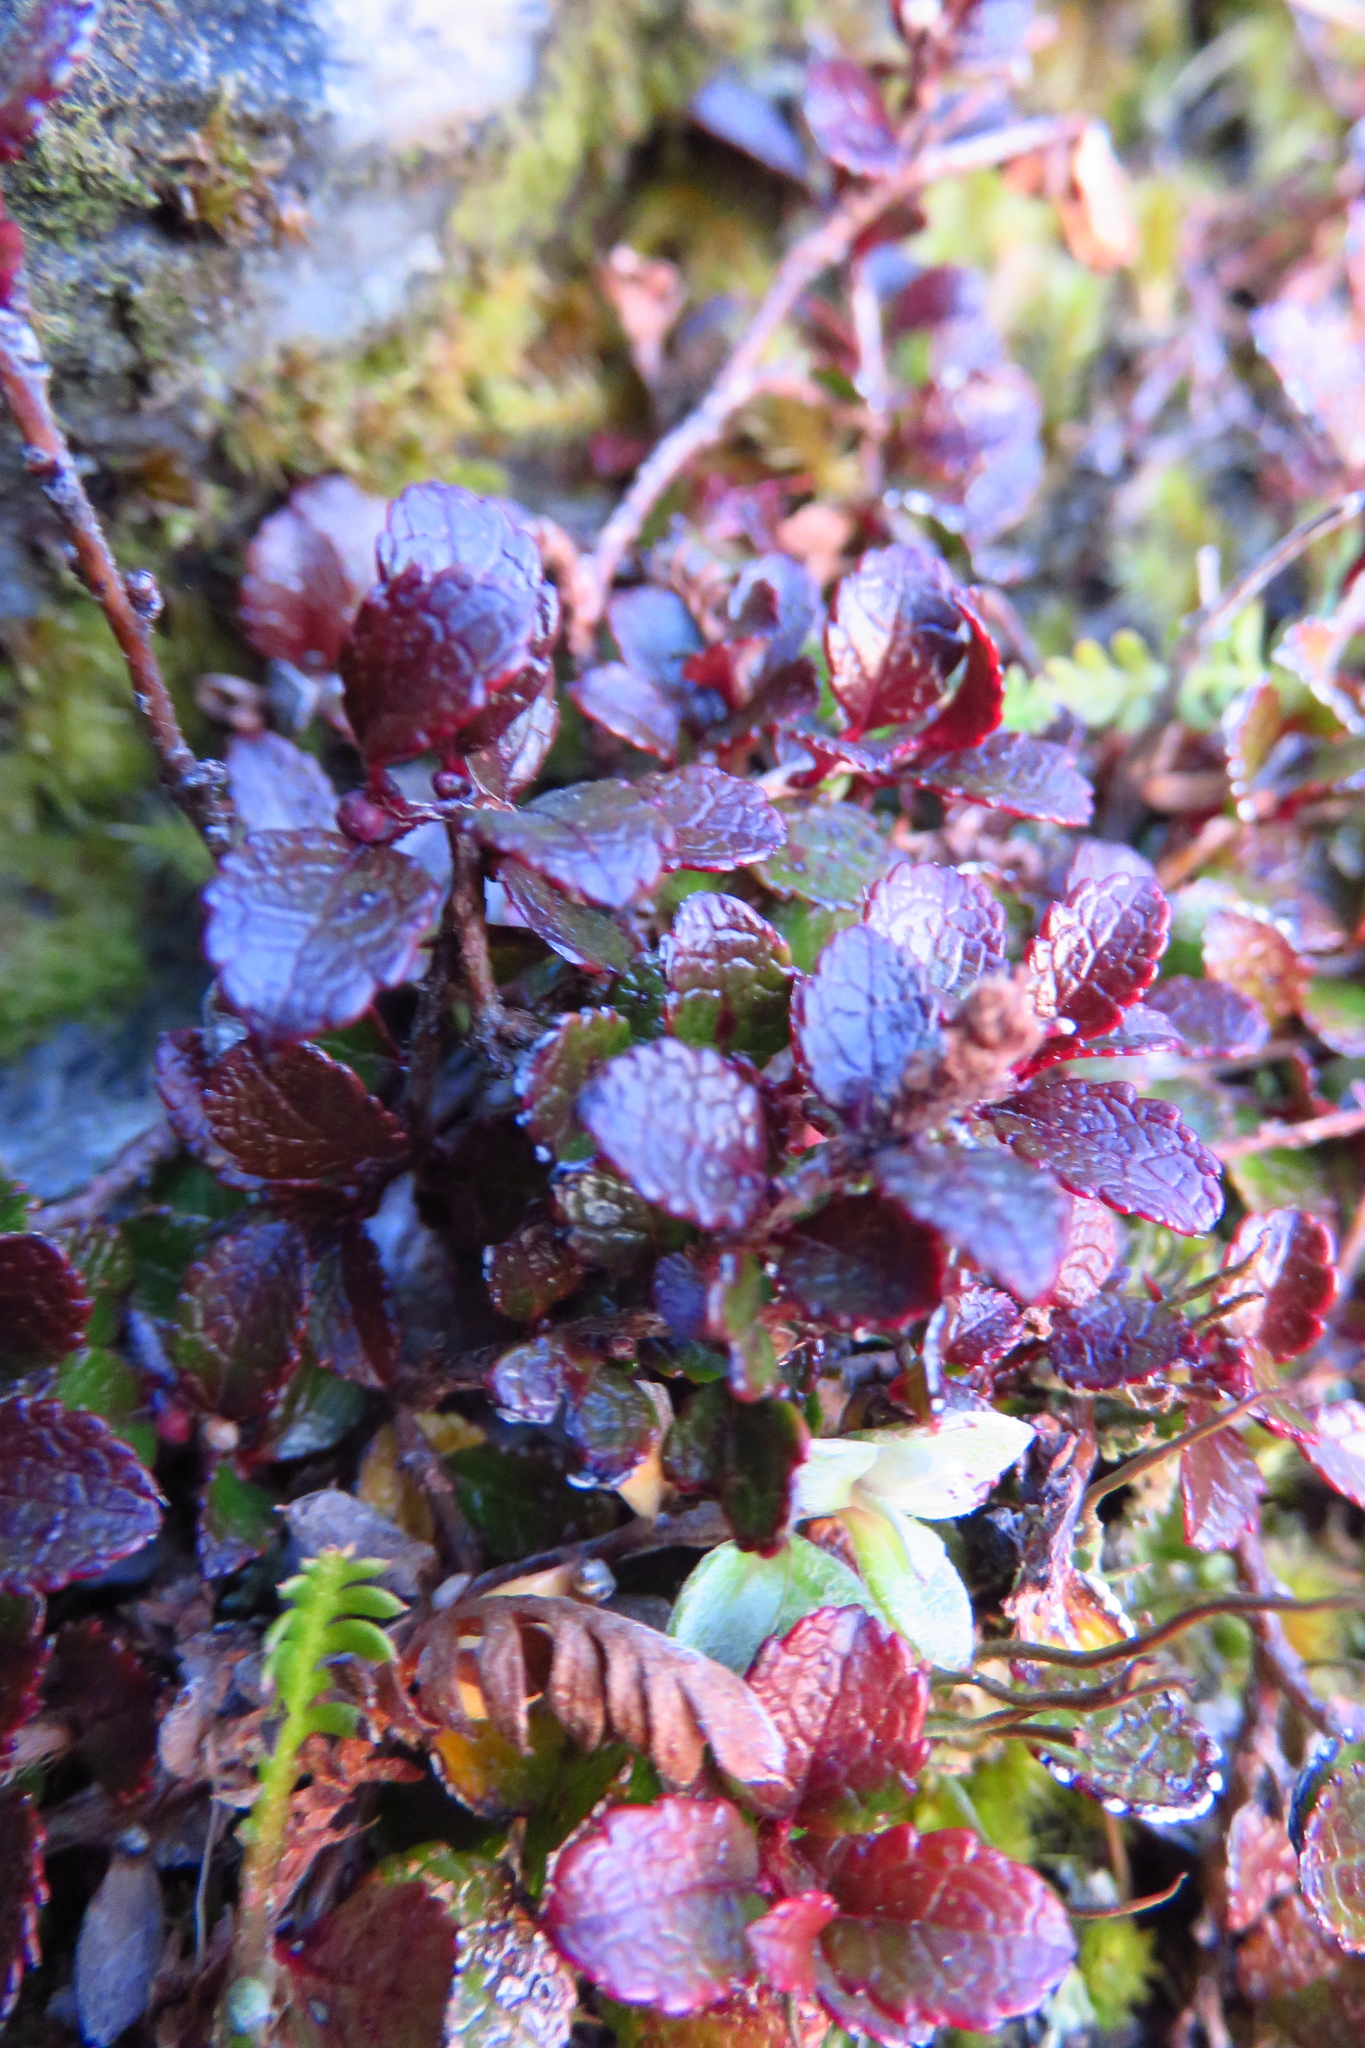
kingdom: Plantae
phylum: Tracheophyta
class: Magnoliopsida
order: Ericales
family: Ericaceae
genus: Gaultheria
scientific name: Gaultheria depressa
